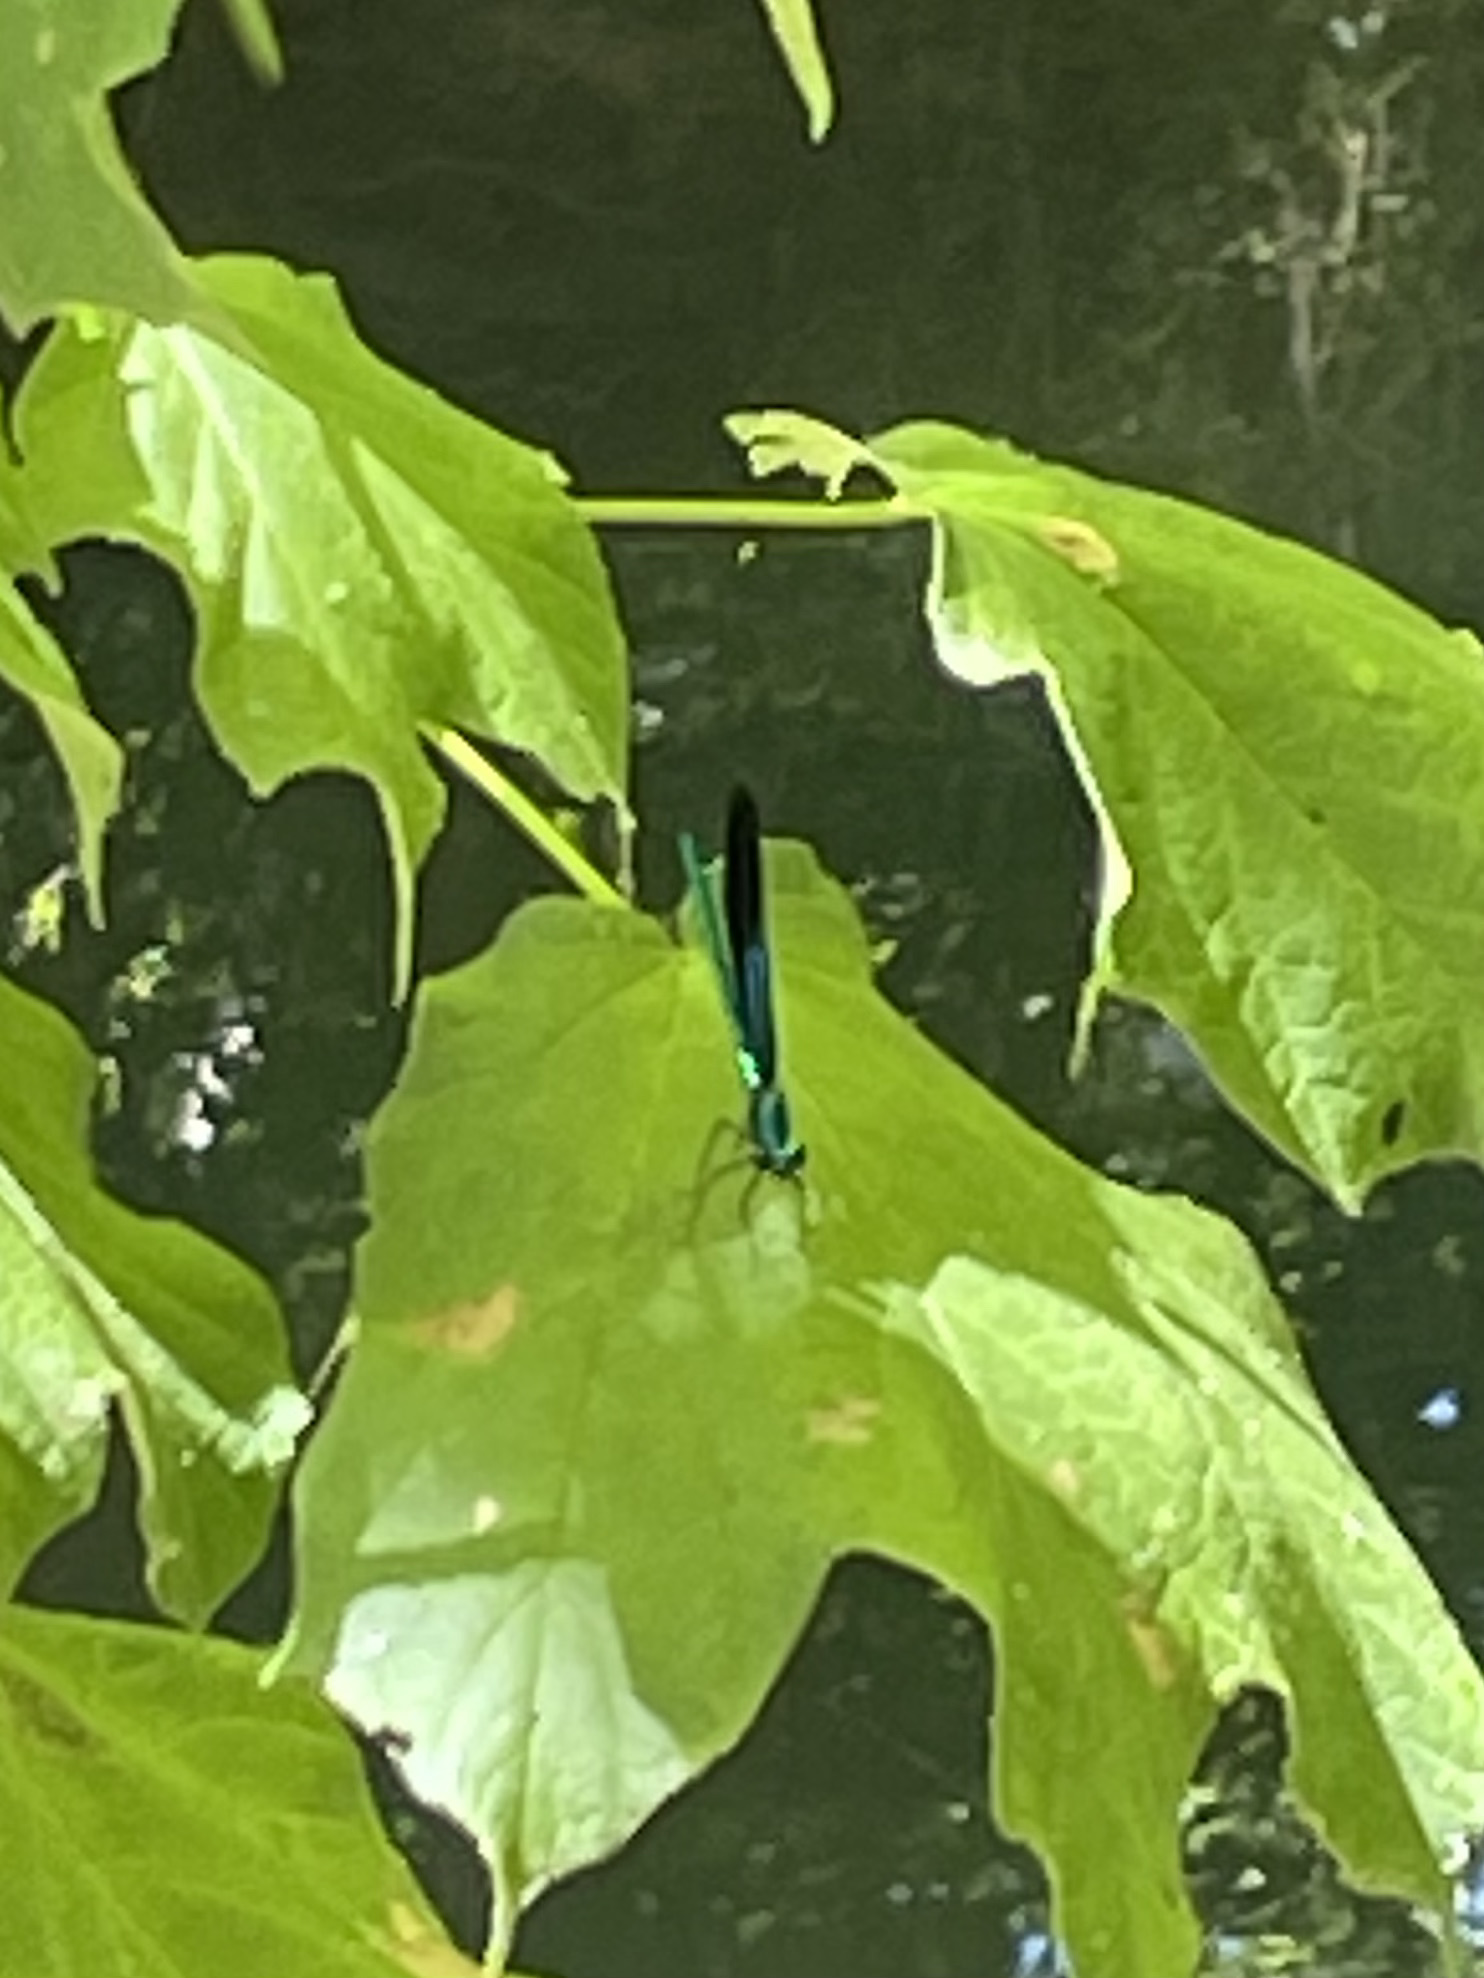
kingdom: Animalia
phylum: Arthropoda
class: Insecta
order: Odonata
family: Calopterygidae
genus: Calopteryx
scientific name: Calopteryx maculata
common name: Ebony jewelwing
